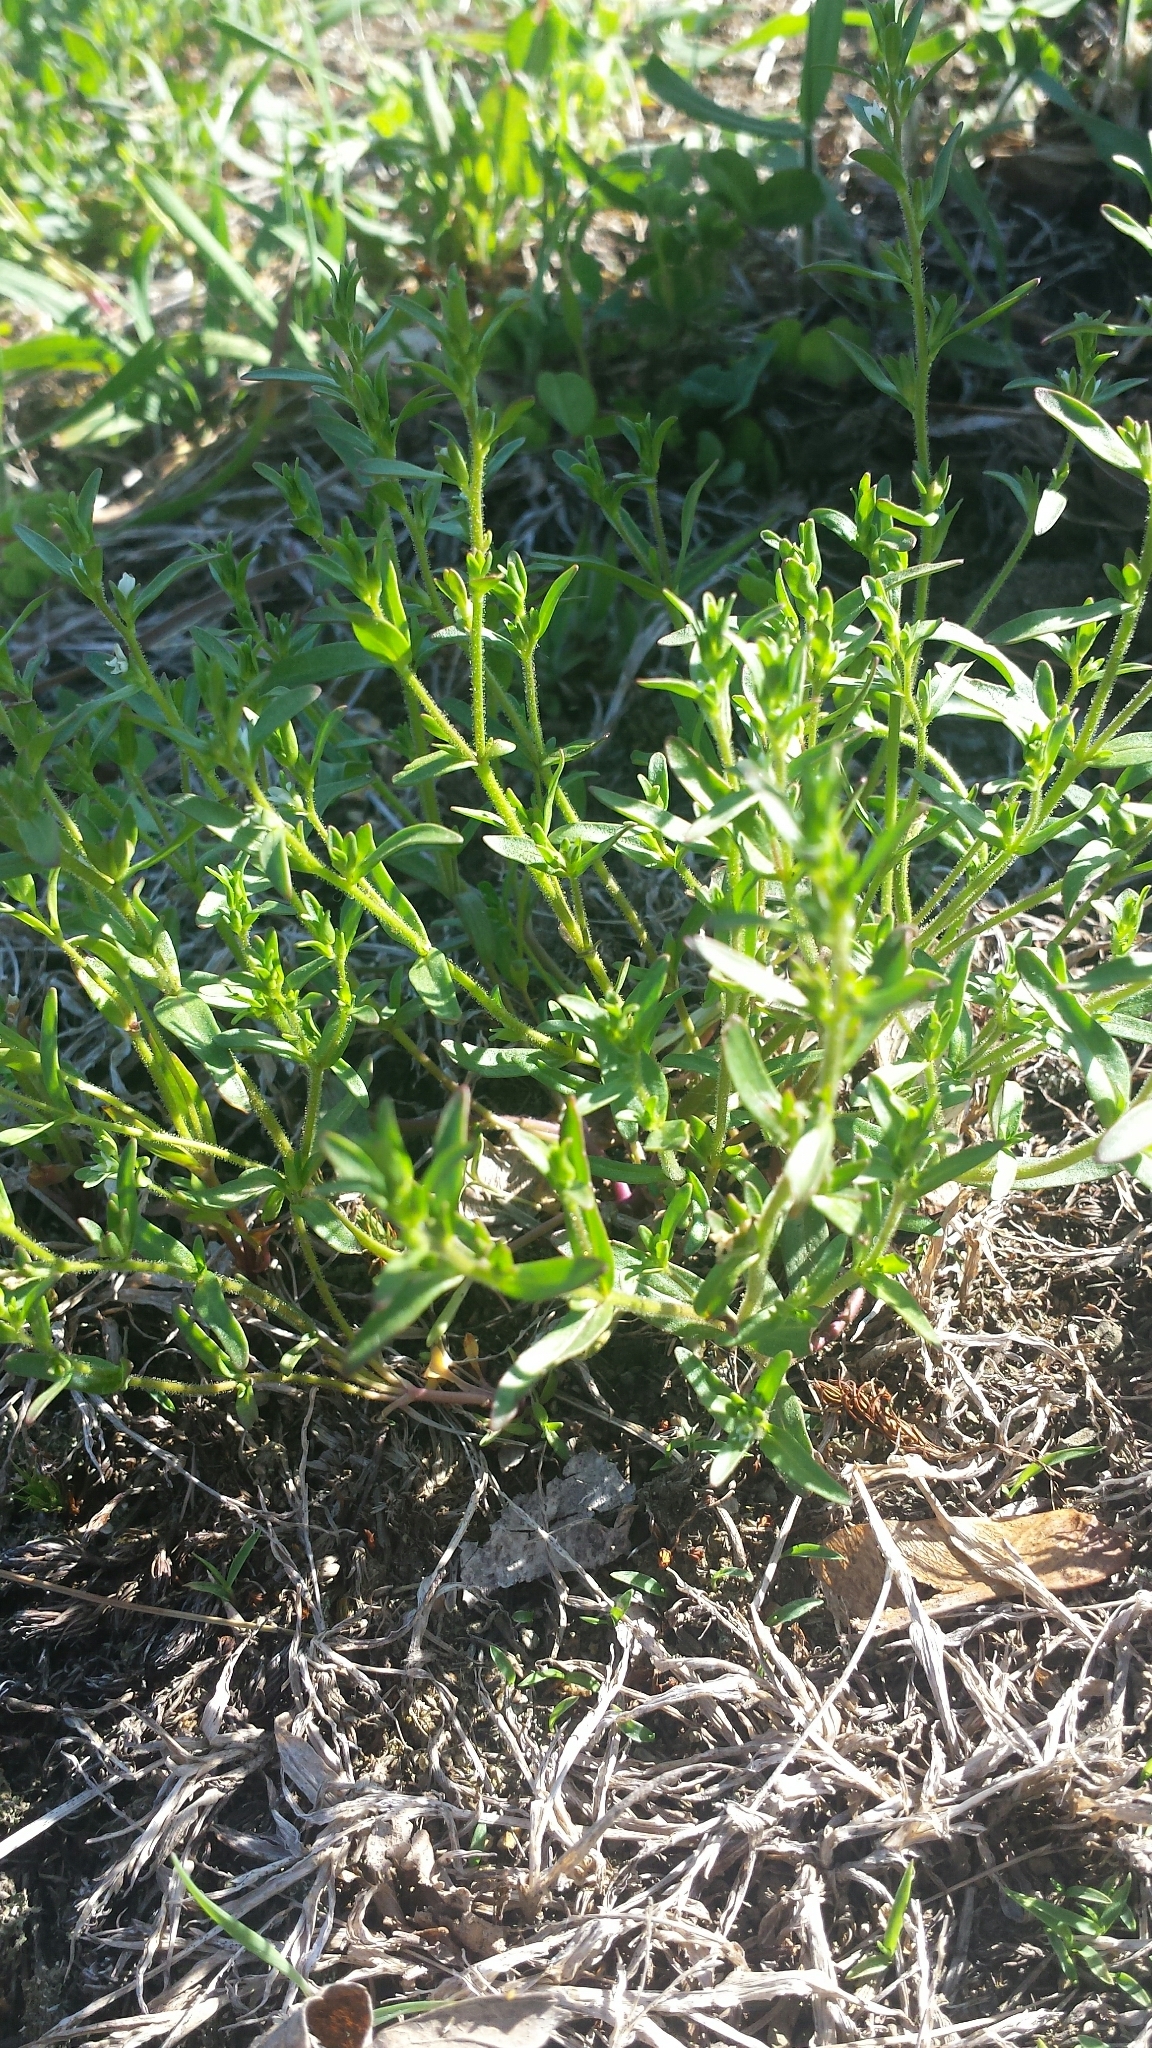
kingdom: Plantae
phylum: Tracheophyta
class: Magnoliopsida
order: Lamiales
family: Plantaginaceae
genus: Veronica
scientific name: Veronica peregrina
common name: Neckweed
